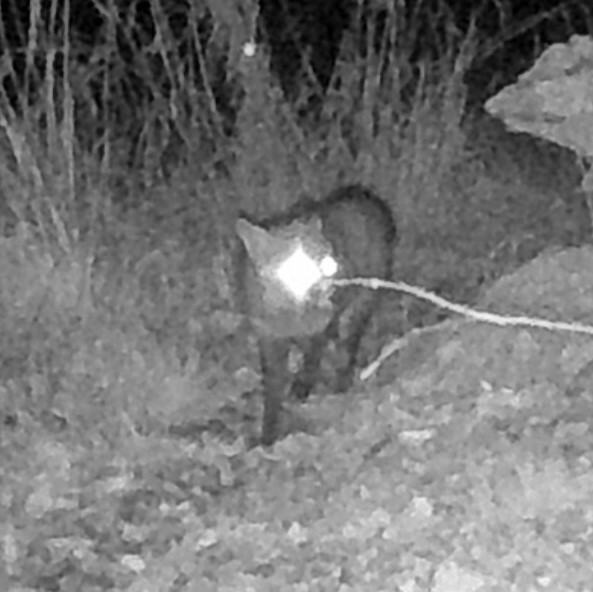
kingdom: Animalia
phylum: Chordata
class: Mammalia
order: Carnivora
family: Canidae
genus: Vulpes
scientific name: Vulpes vulpes
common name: Red fox
